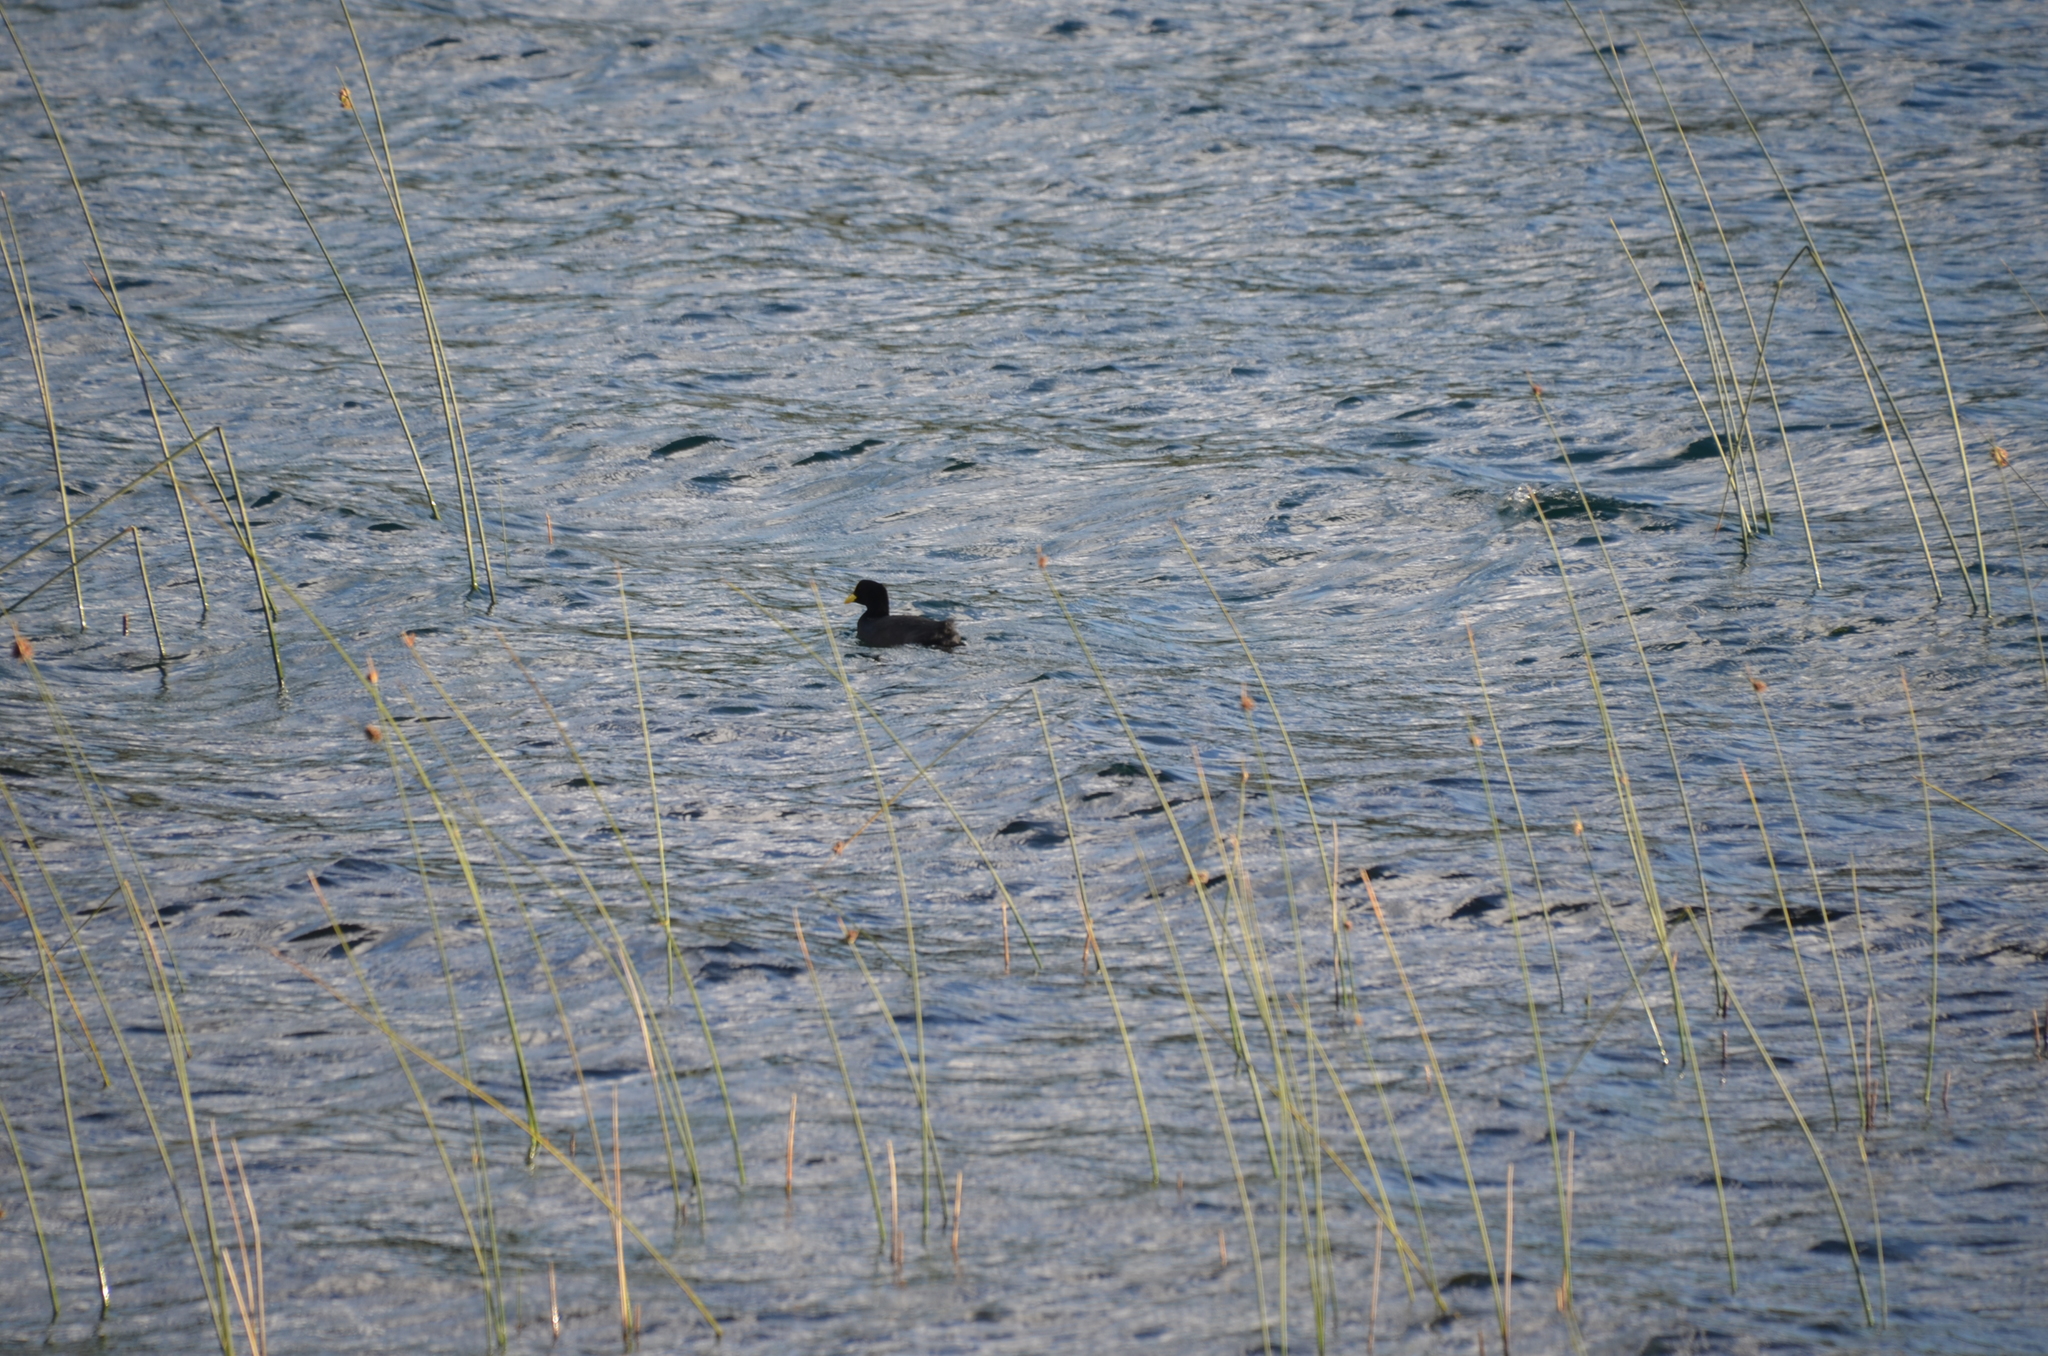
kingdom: Animalia
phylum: Chordata
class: Aves
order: Gruiformes
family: Rallidae
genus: Fulica
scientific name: Fulica armillata
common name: Red-gartered coot
